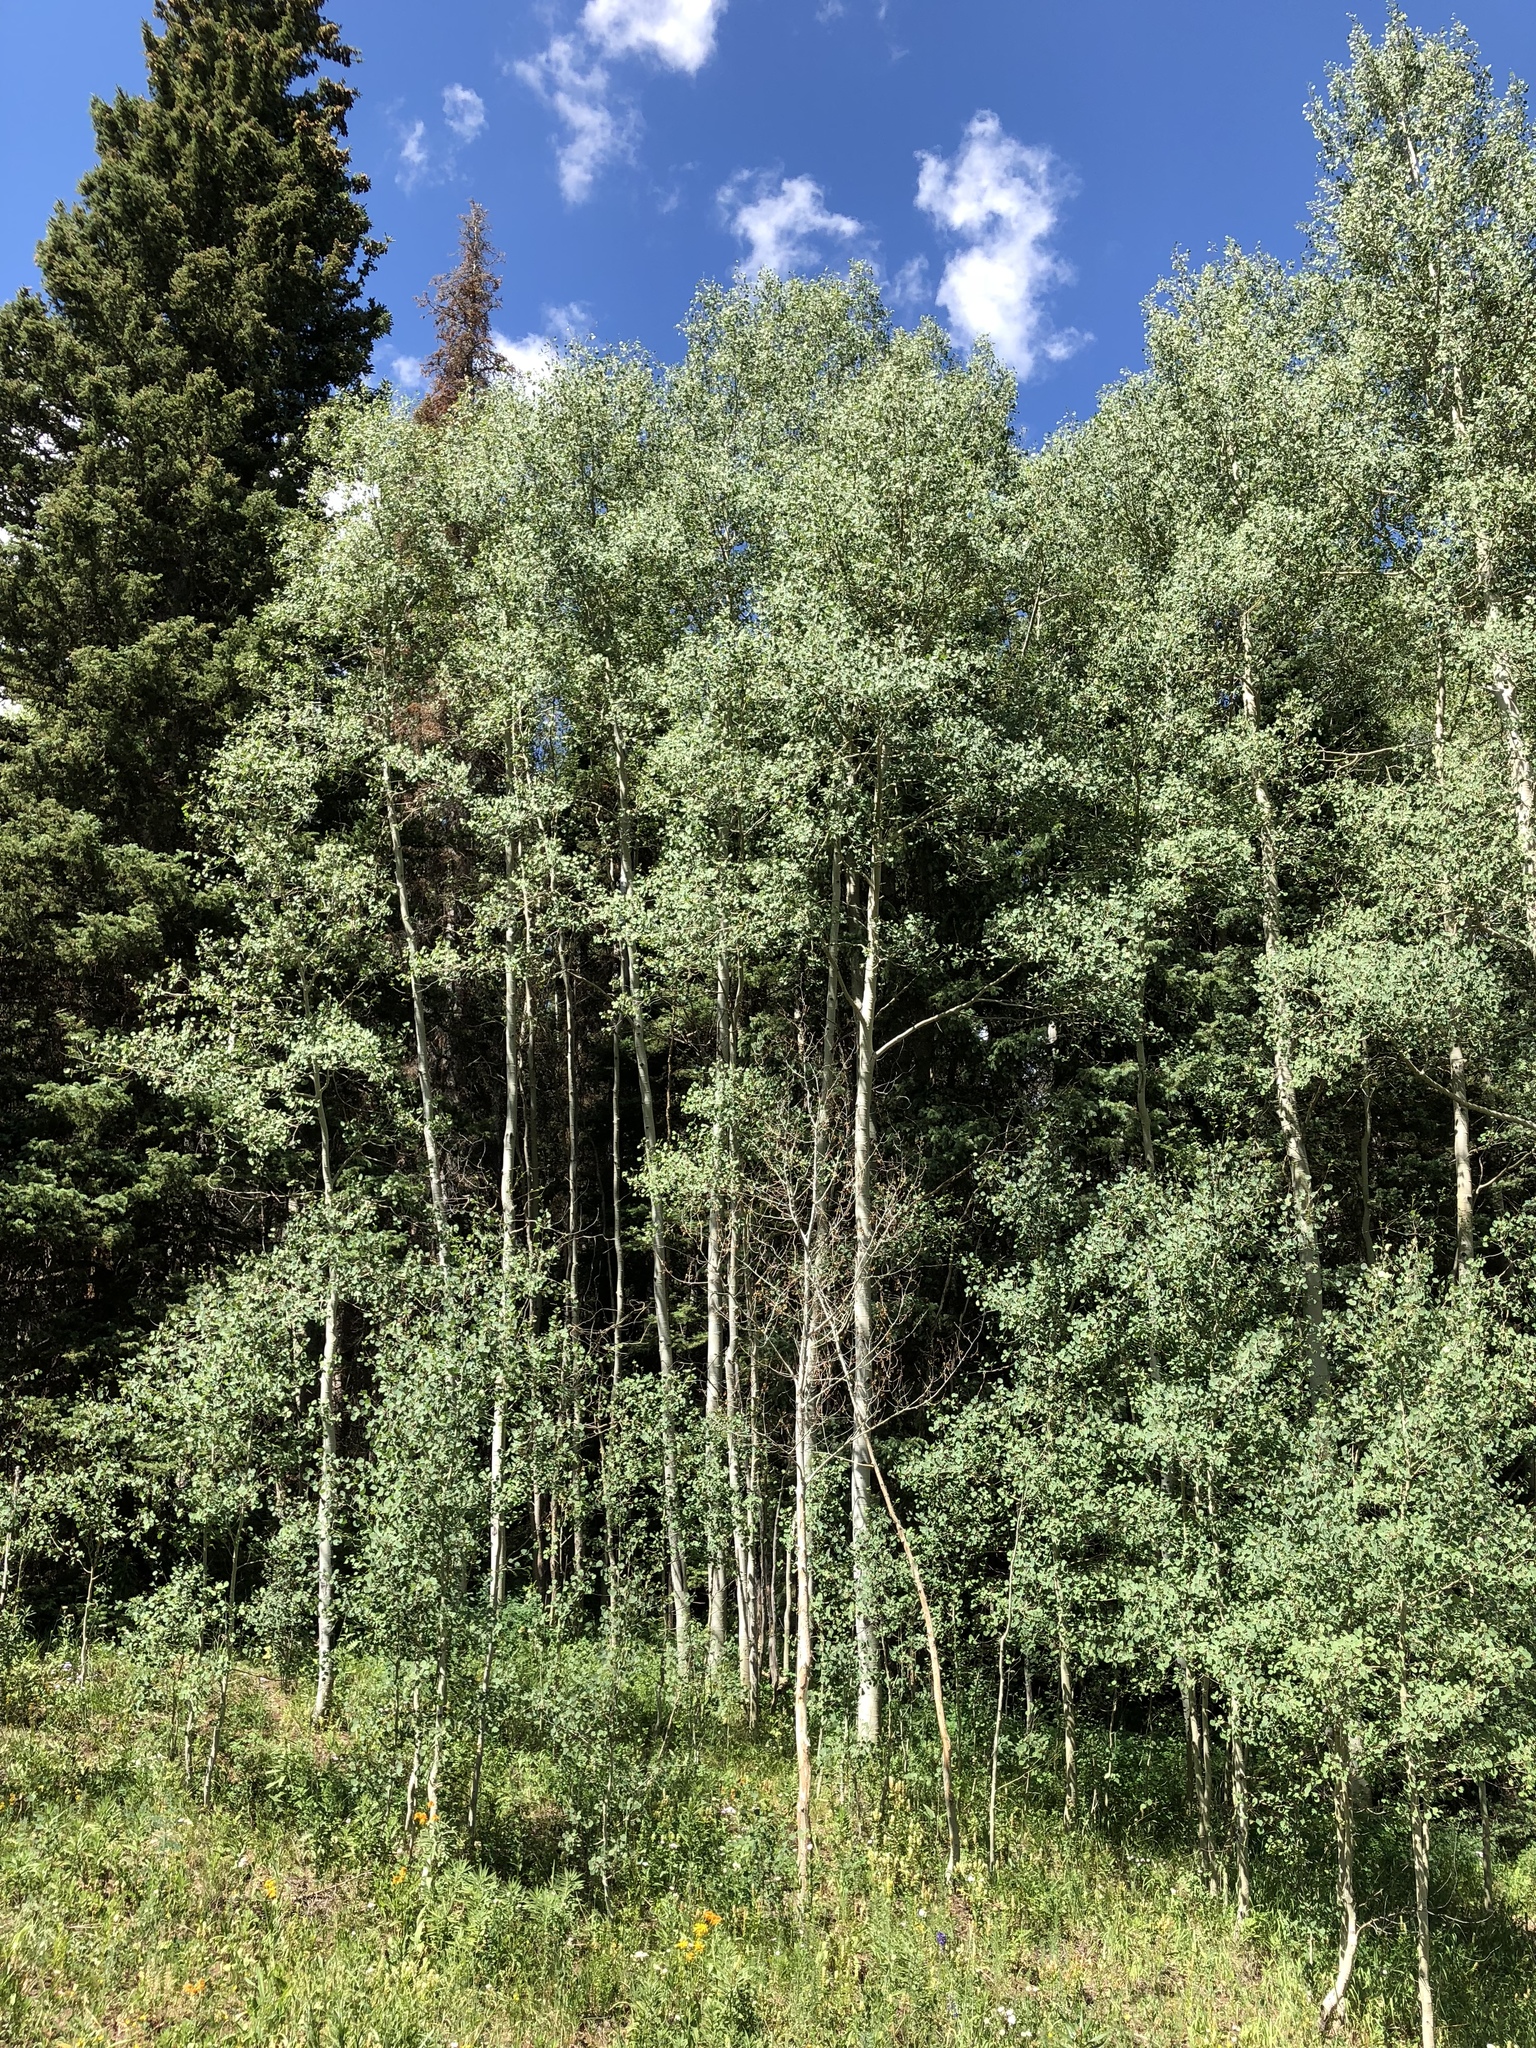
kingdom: Plantae
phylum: Tracheophyta
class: Magnoliopsida
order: Malpighiales
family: Salicaceae
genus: Populus
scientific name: Populus tremuloides
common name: Quaking aspen
